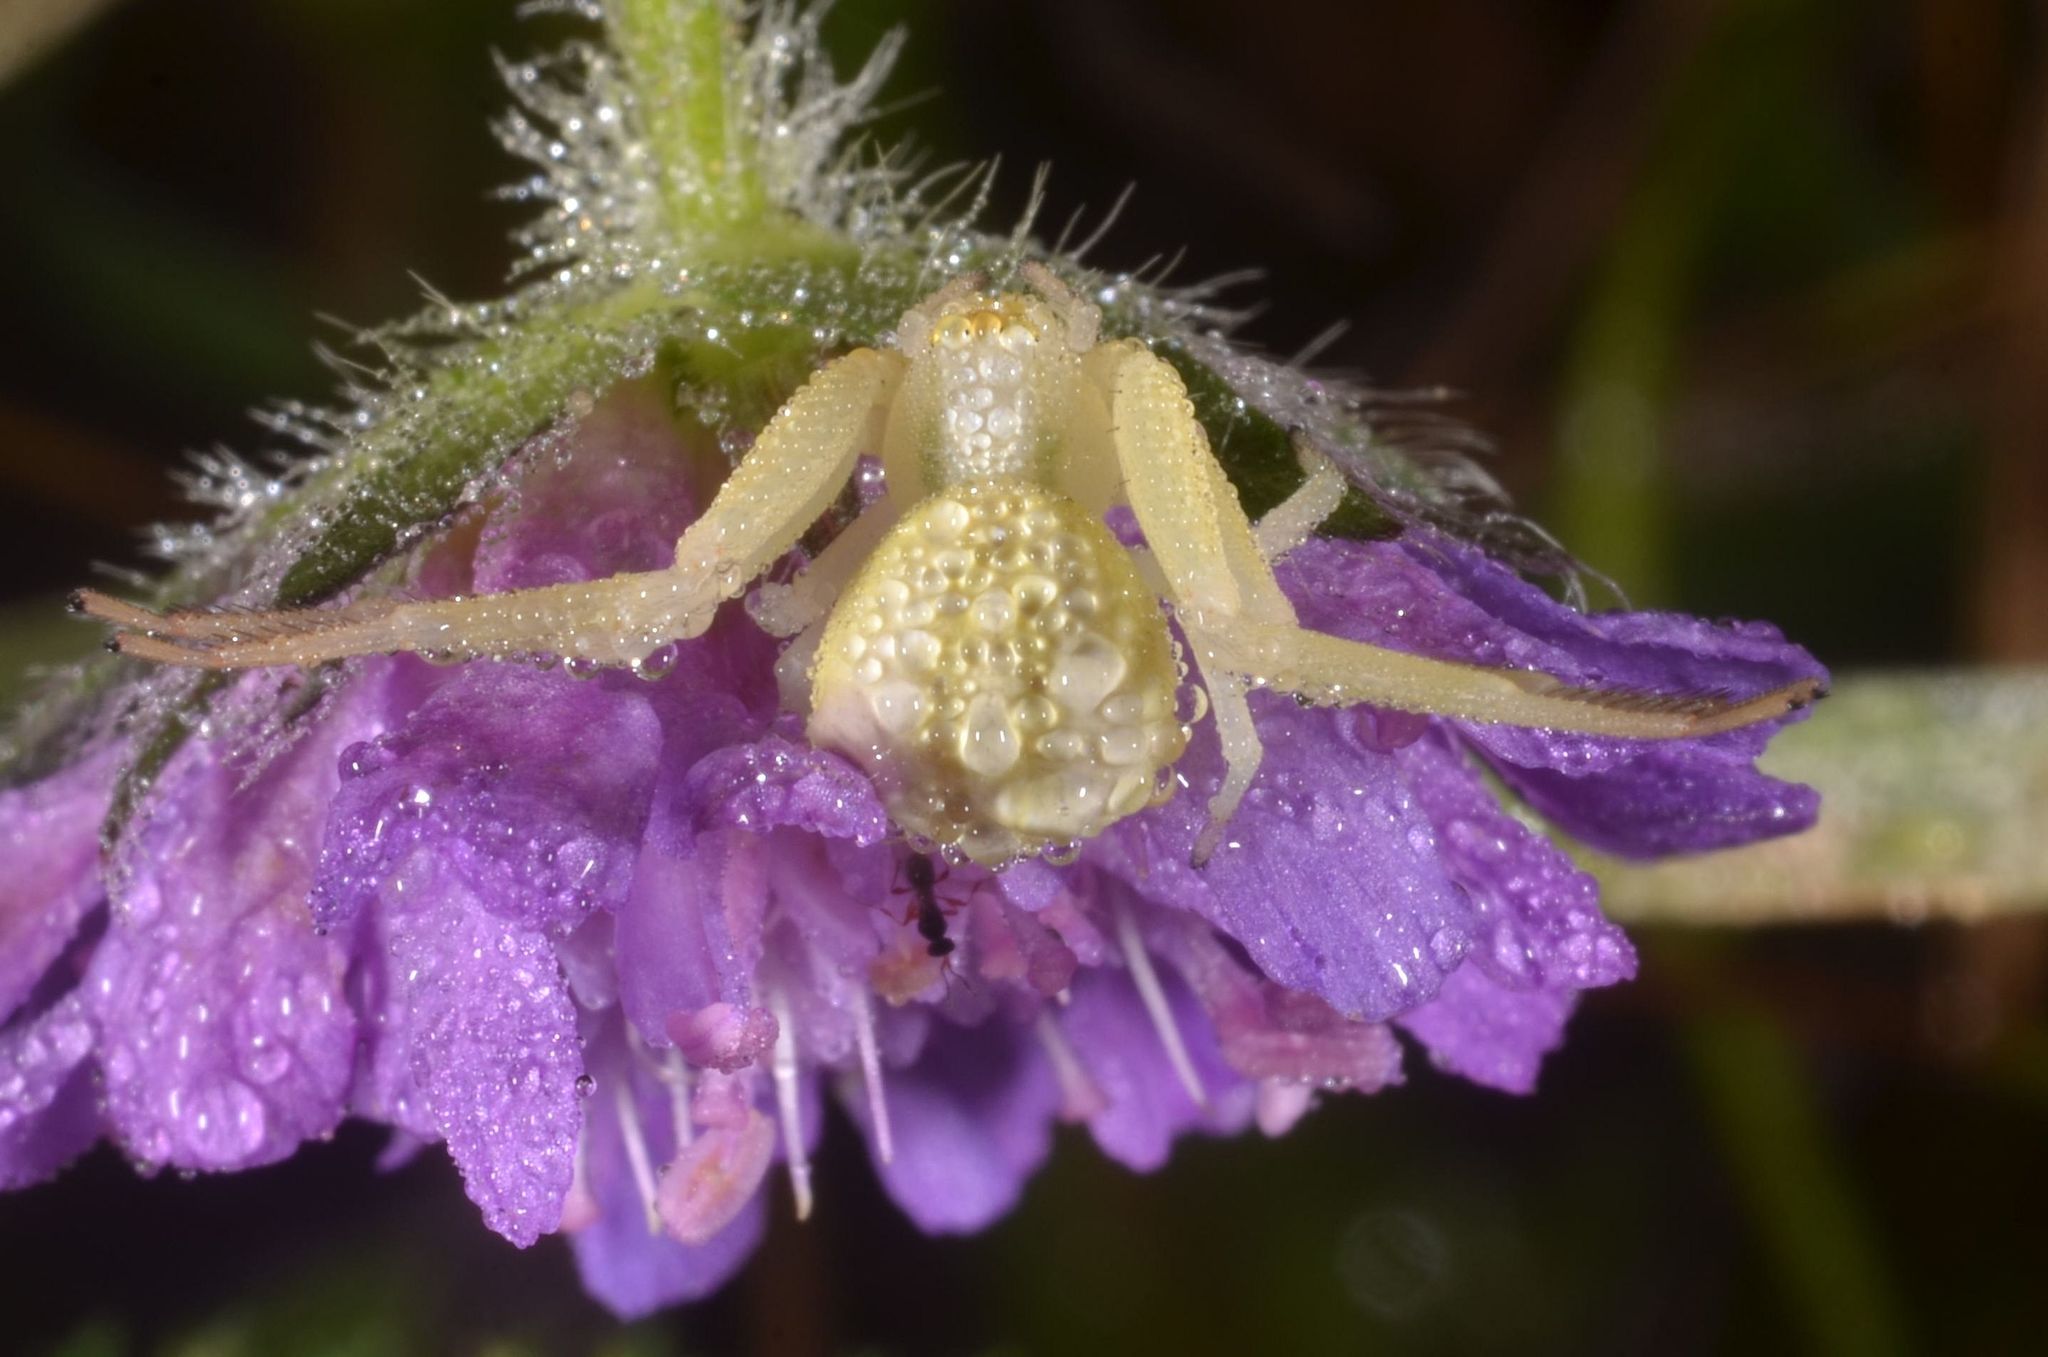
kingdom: Animalia
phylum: Arthropoda
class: Arachnida
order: Araneae
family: Thomisidae
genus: Misumena
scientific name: Misumena vatia
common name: Goldenrod crab spider
